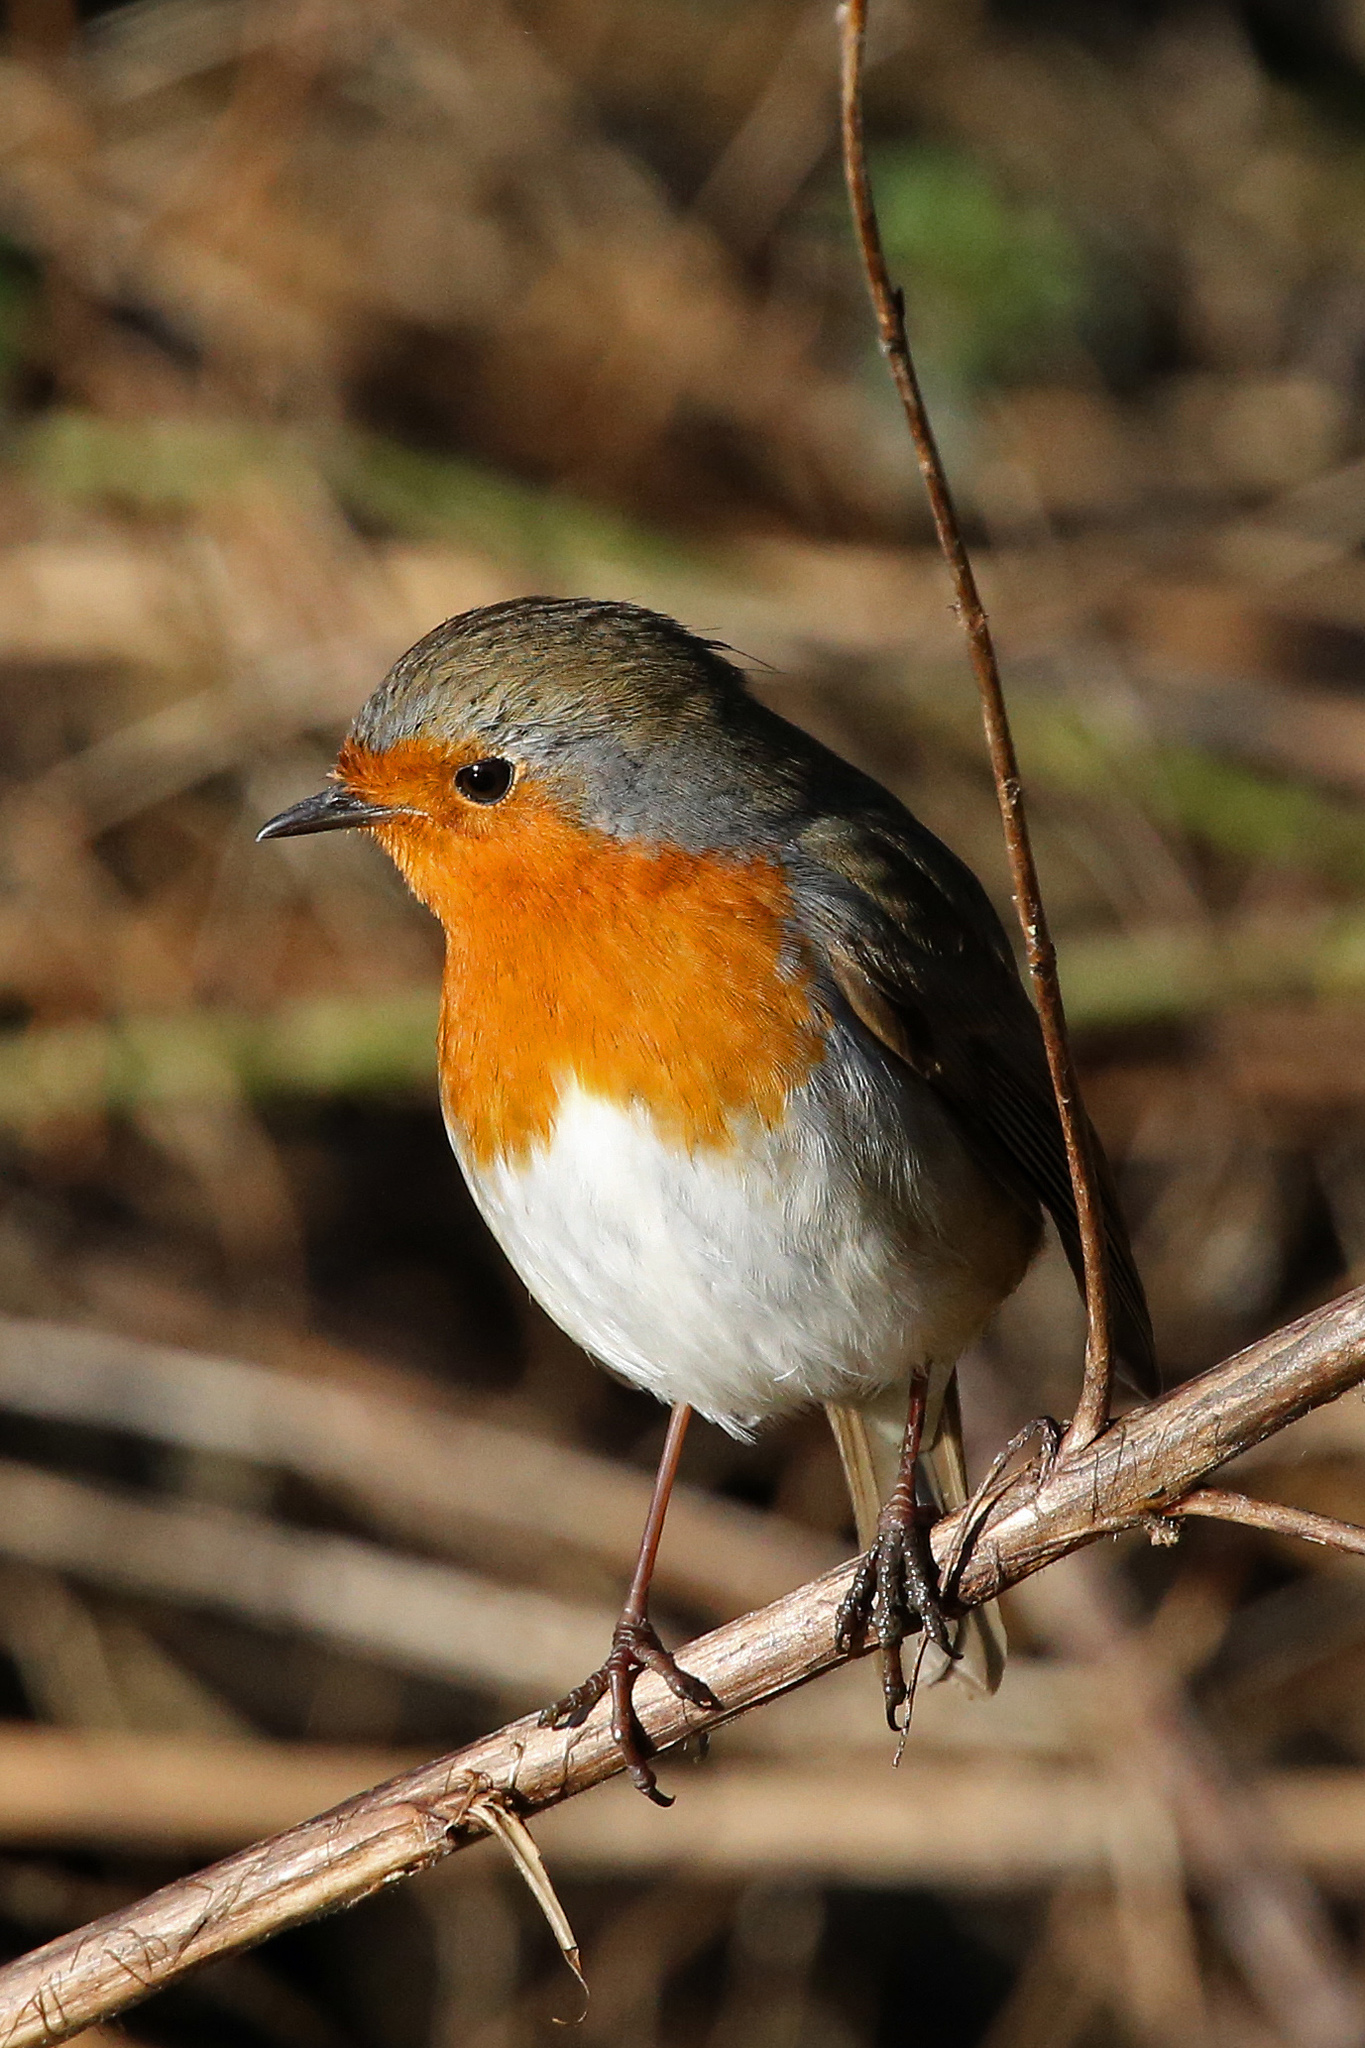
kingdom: Animalia
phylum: Chordata
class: Aves
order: Passeriformes
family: Muscicapidae
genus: Erithacus
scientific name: Erithacus rubecula
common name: European robin
